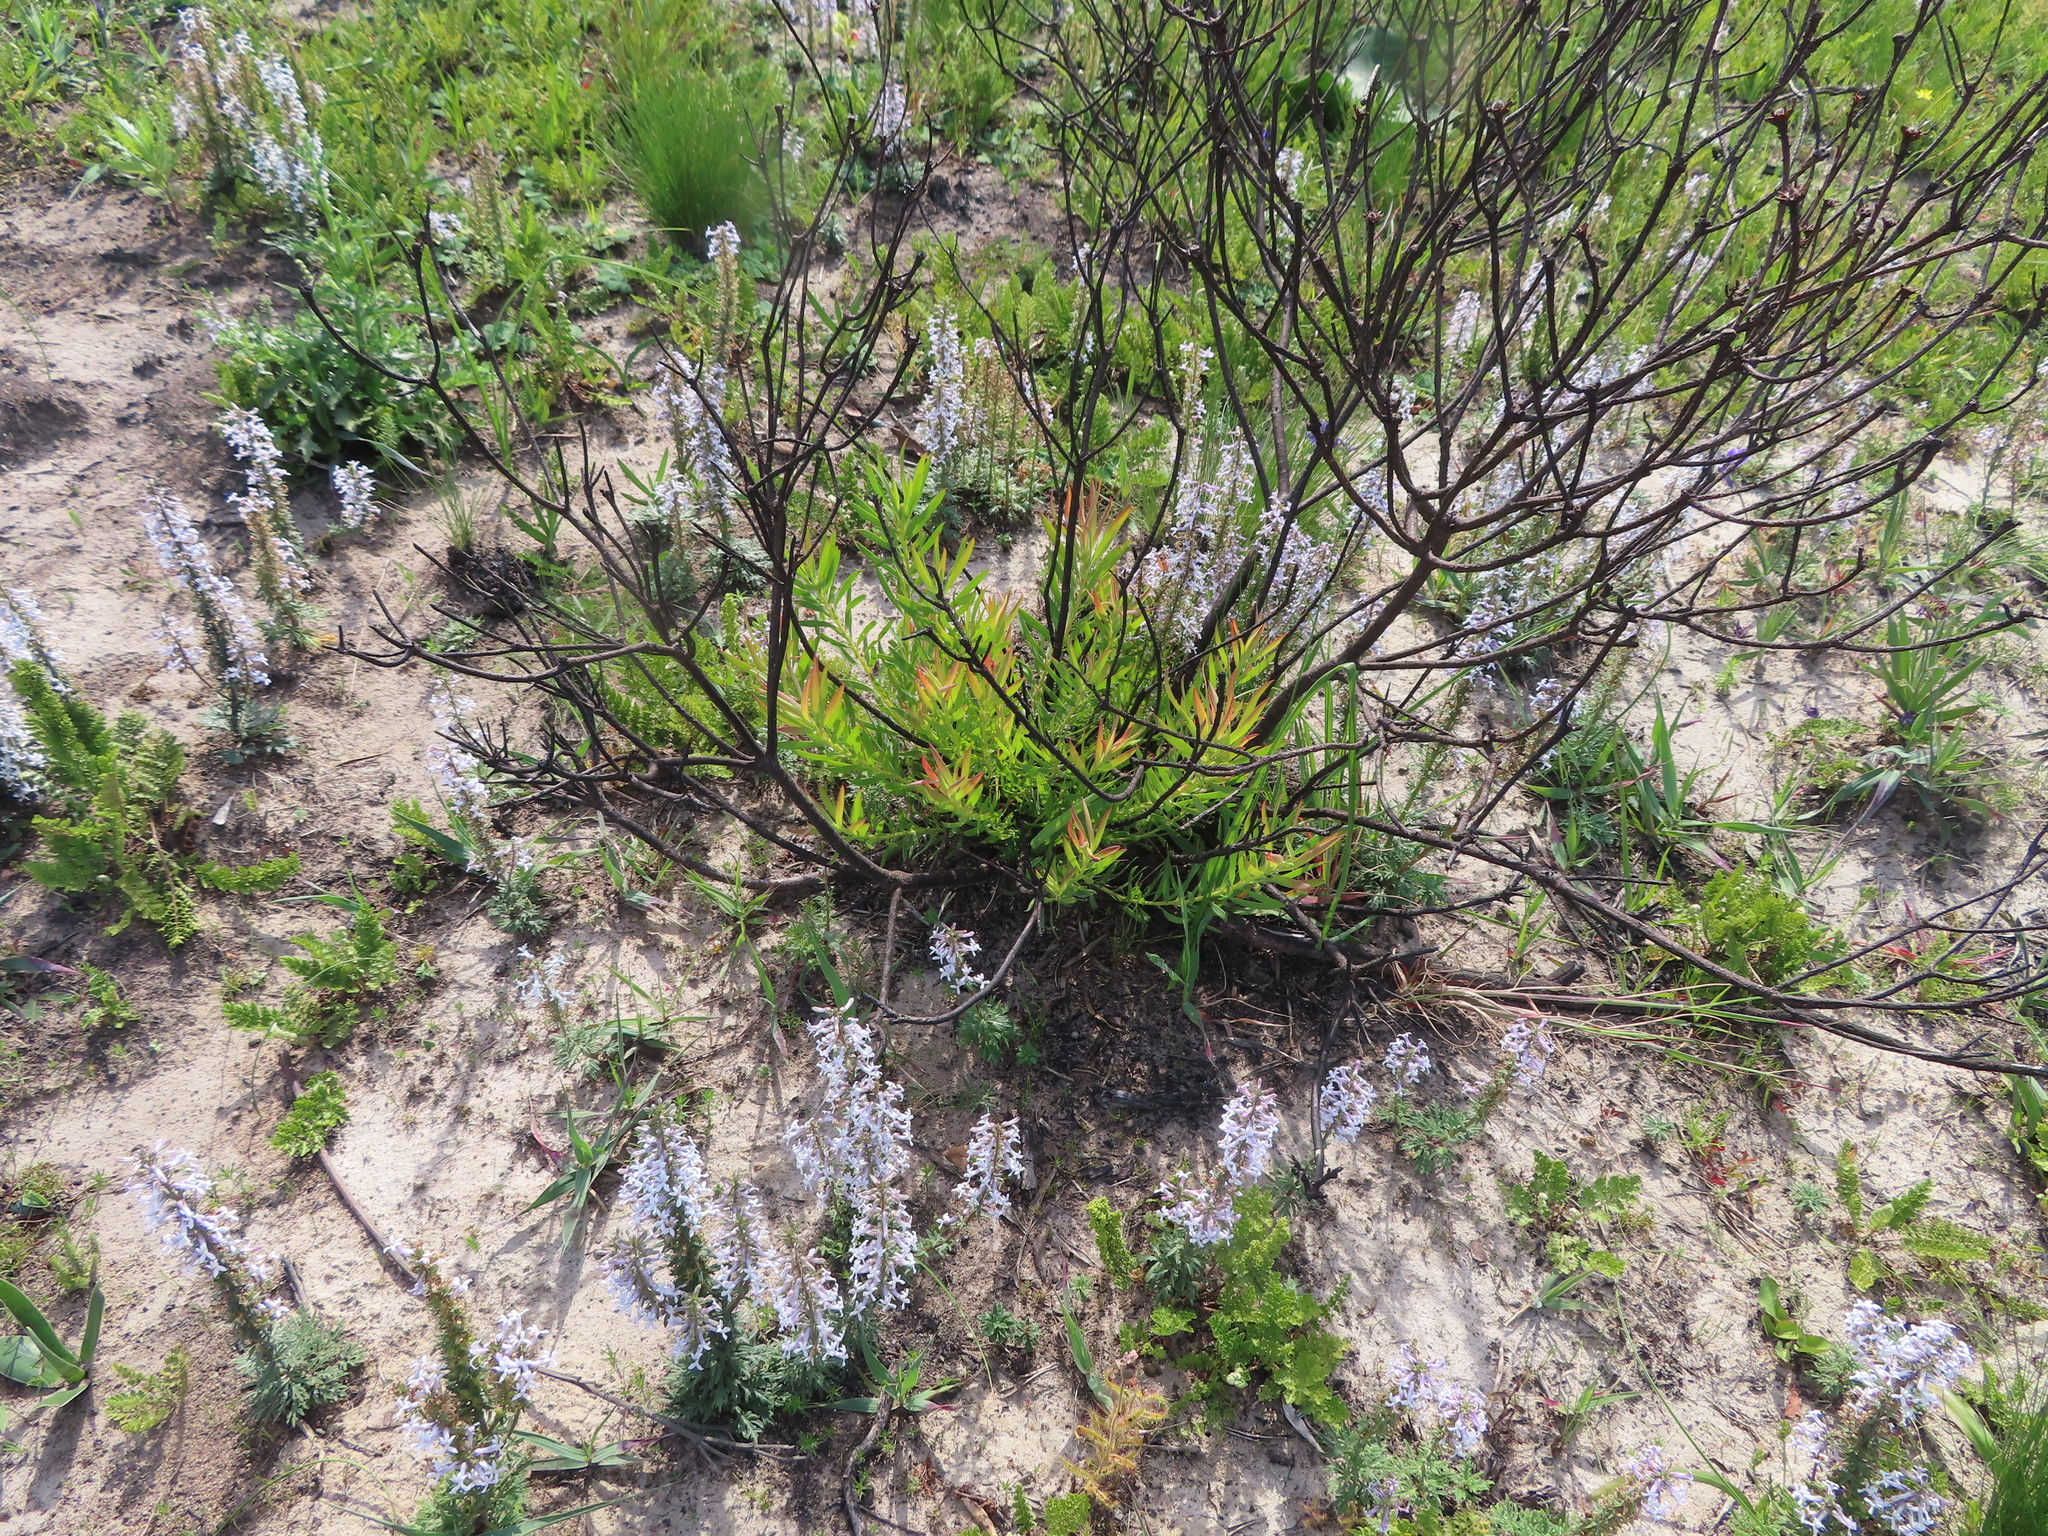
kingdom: Plantae
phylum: Tracheophyta
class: Magnoliopsida
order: Proteales
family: Proteaceae
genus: Leucadendron
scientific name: Leucadendron salignum
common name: Common sunshine conebush
